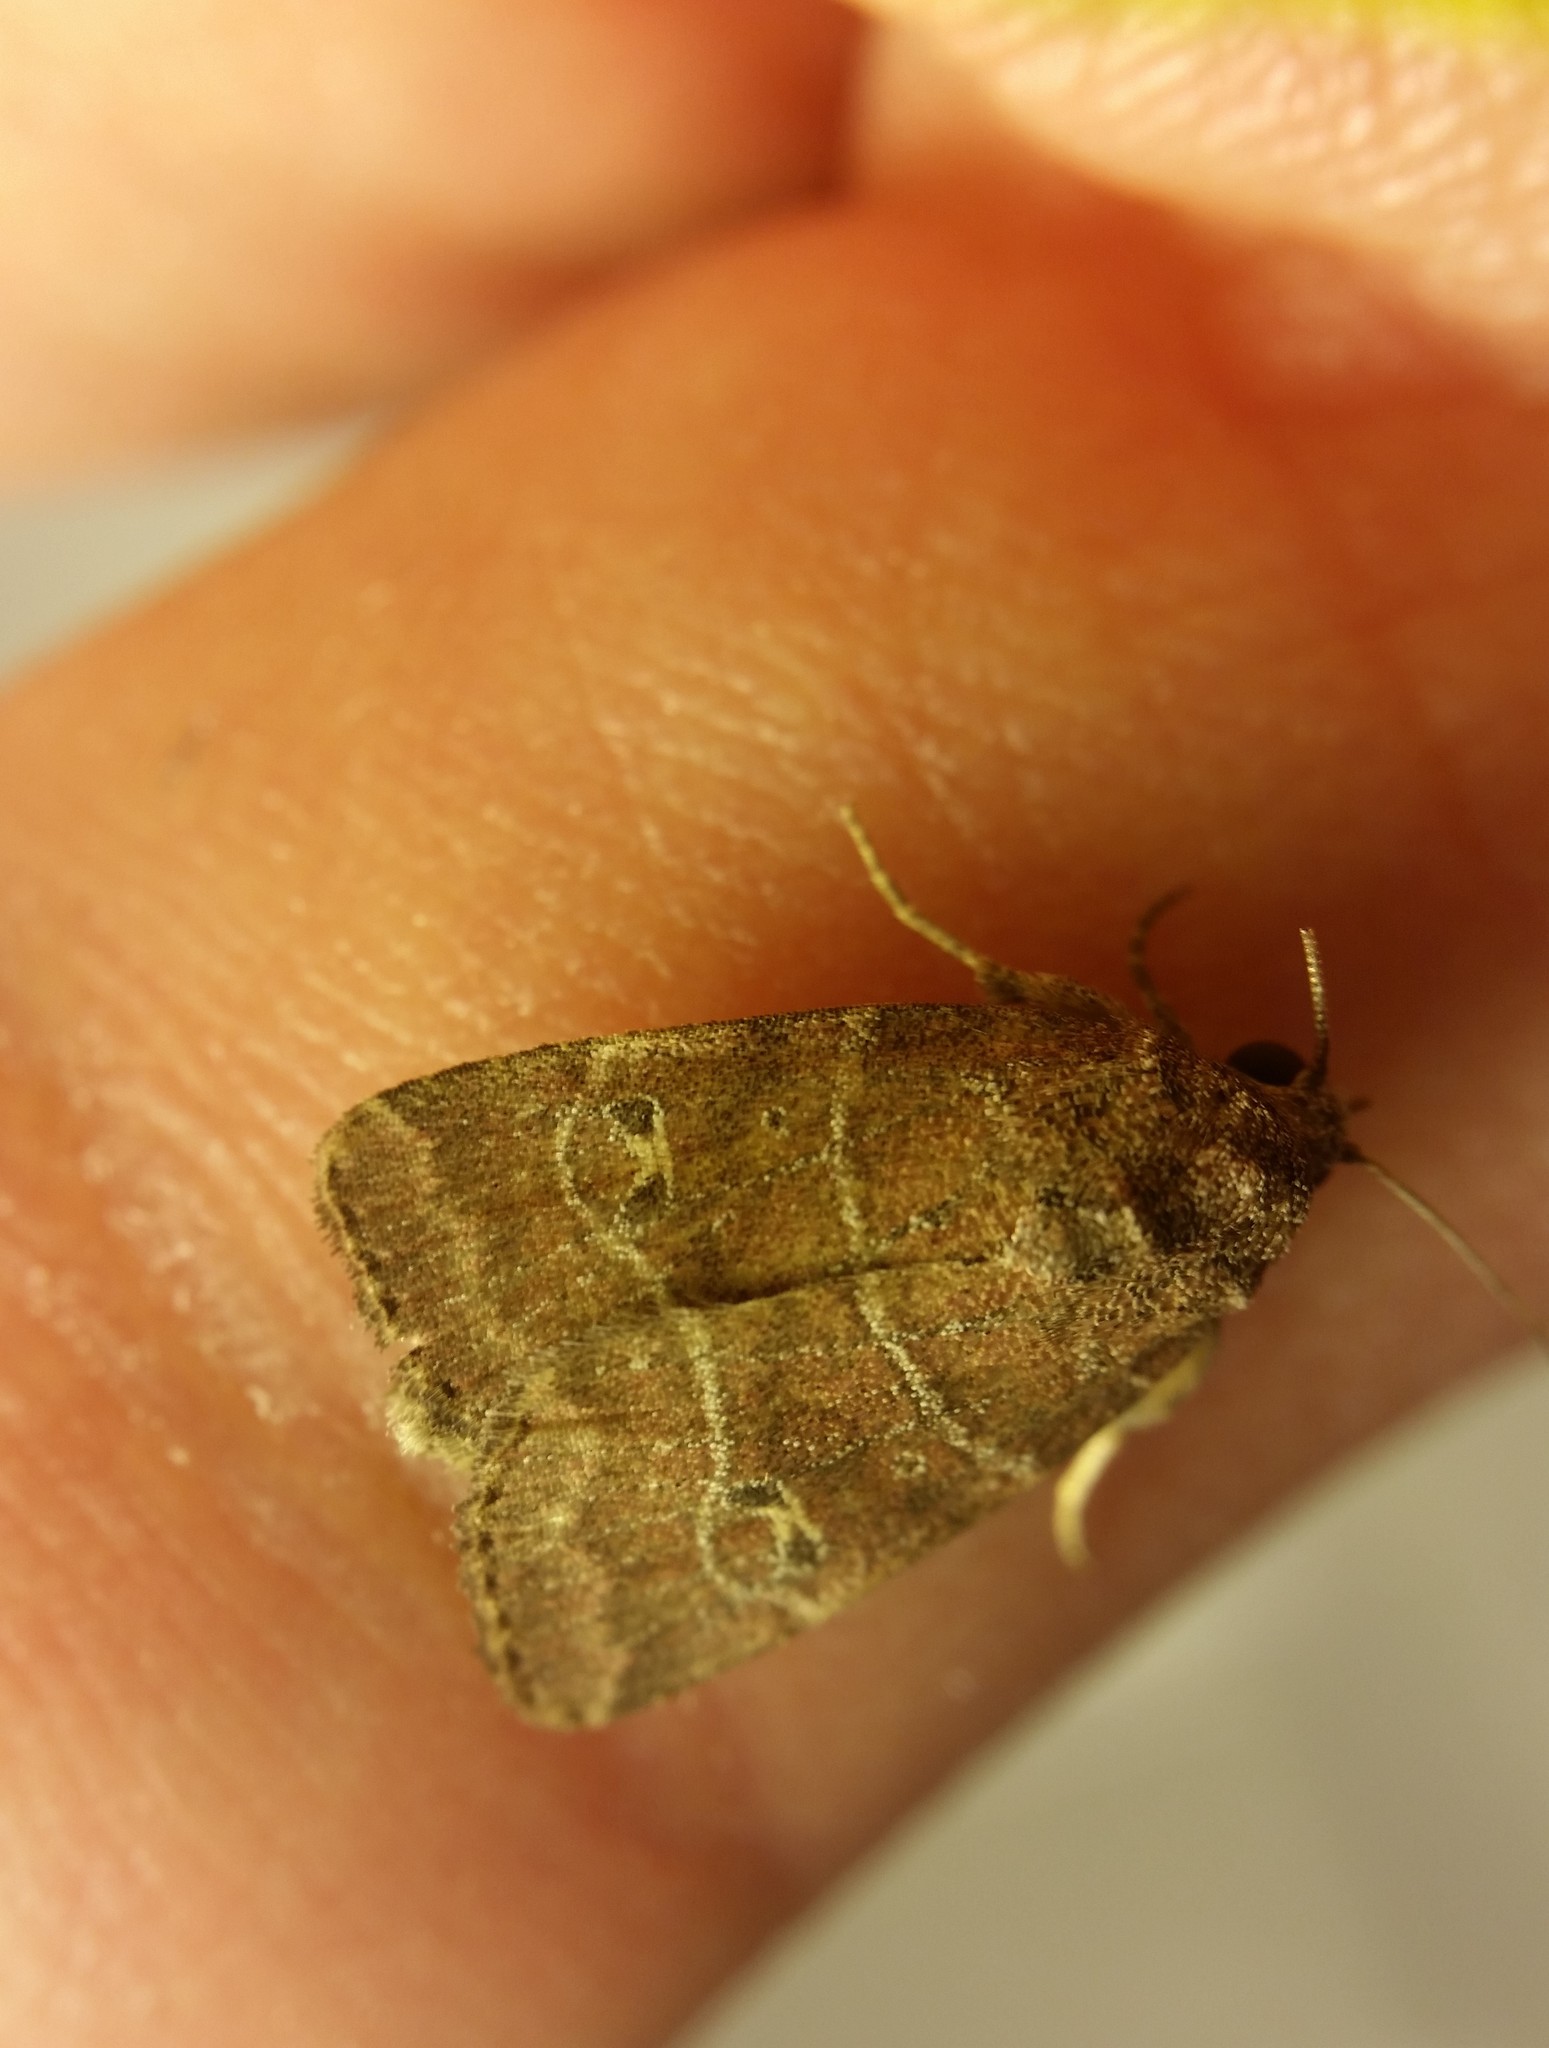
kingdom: Animalia
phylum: Arthropoda
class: Insecta
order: Lepidoptera
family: Noctuidae
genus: Elaphria
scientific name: Elaphria grata
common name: Grateful midget moth
